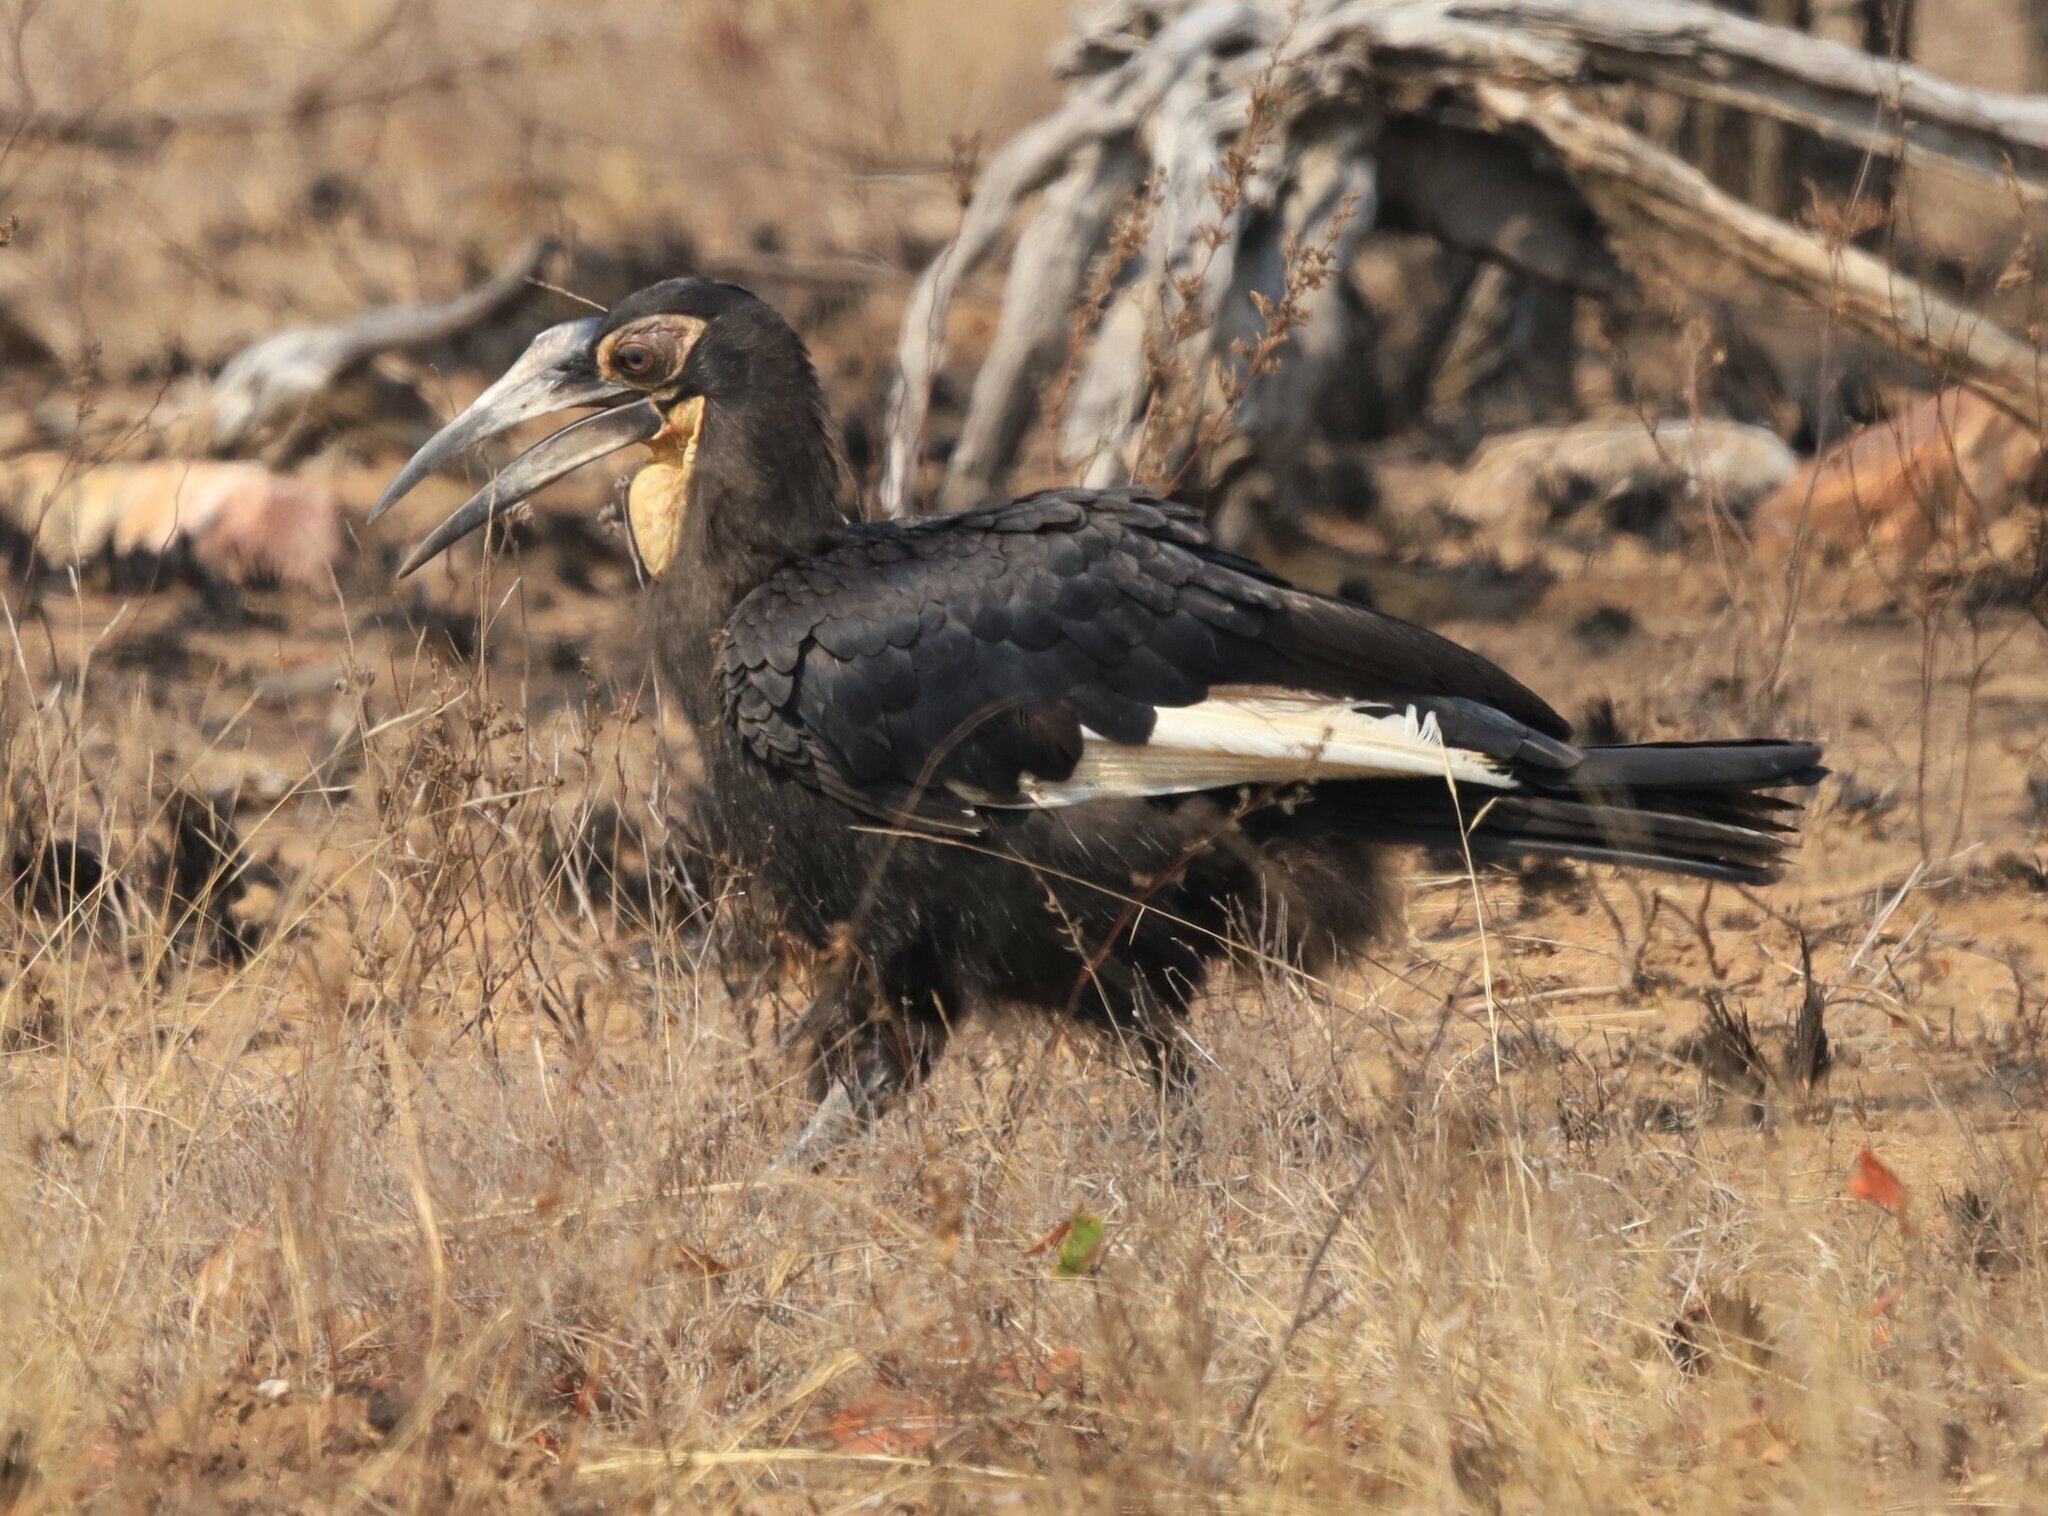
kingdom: Animalia
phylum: Chordata
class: Aves
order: Bucerotiformes
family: Bucorvidae
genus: Bucorvus
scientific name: Bucorvus leadbeateri
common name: Southern ground-hornbill
